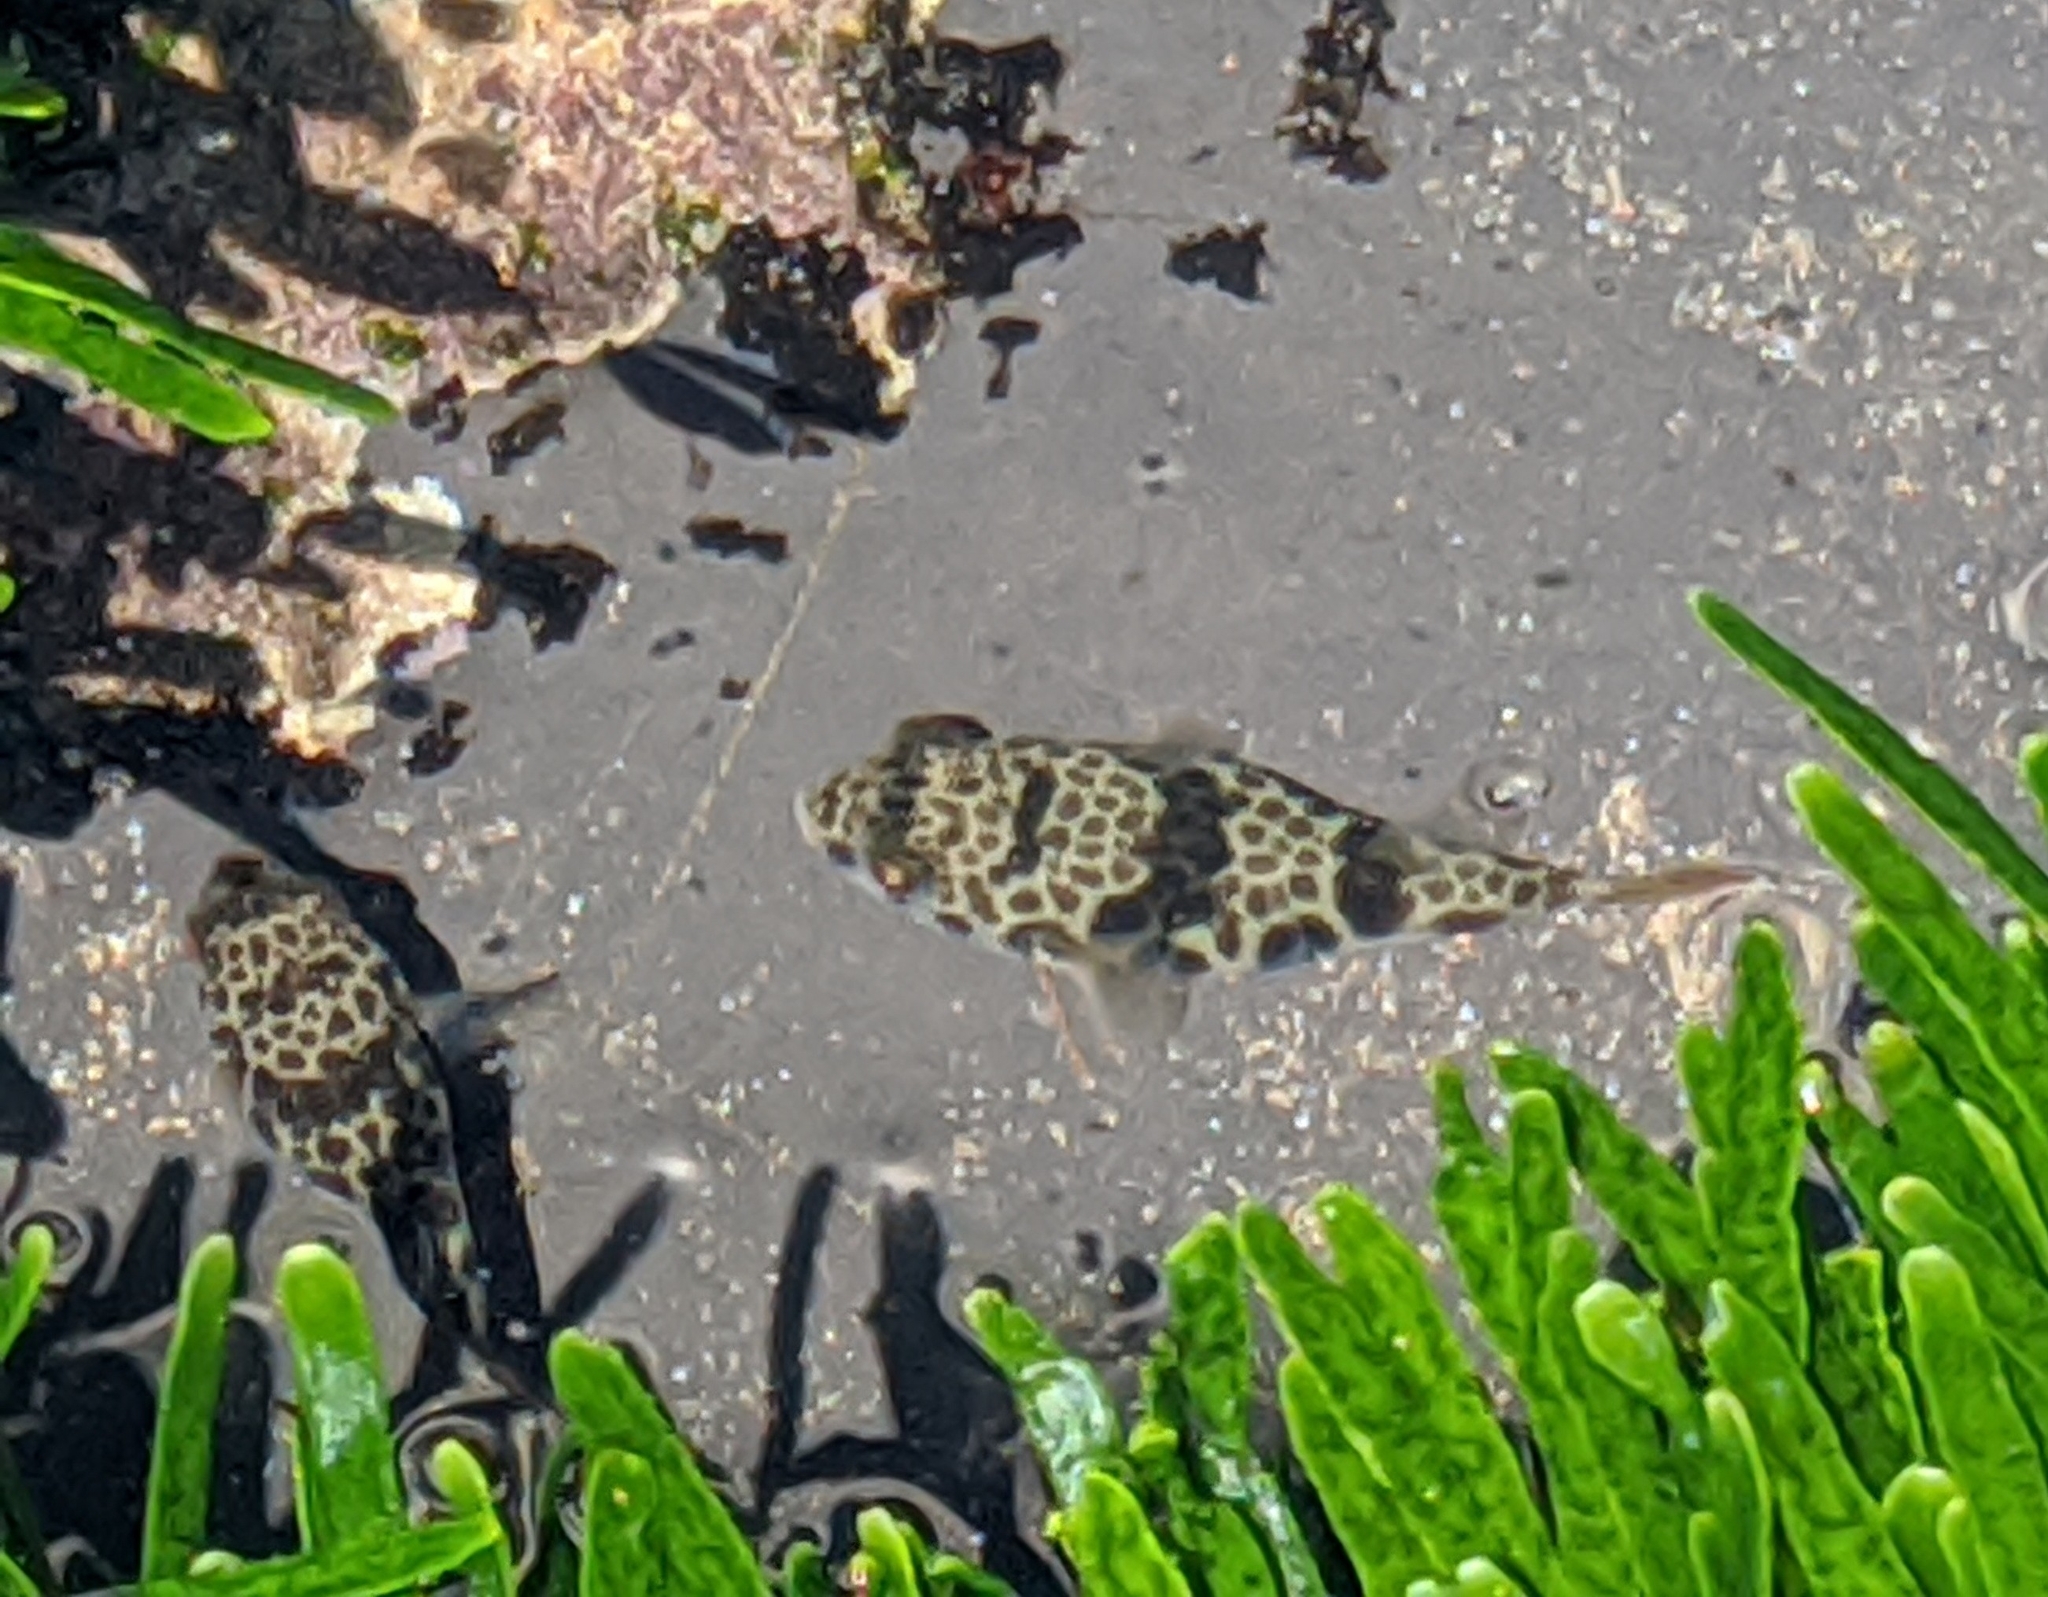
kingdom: Animalia
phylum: Chordata
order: Tetraodontiformes
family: Tetraodontidae
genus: Tetractenos
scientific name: Tetractenos glaber
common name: Smooth toadfish
